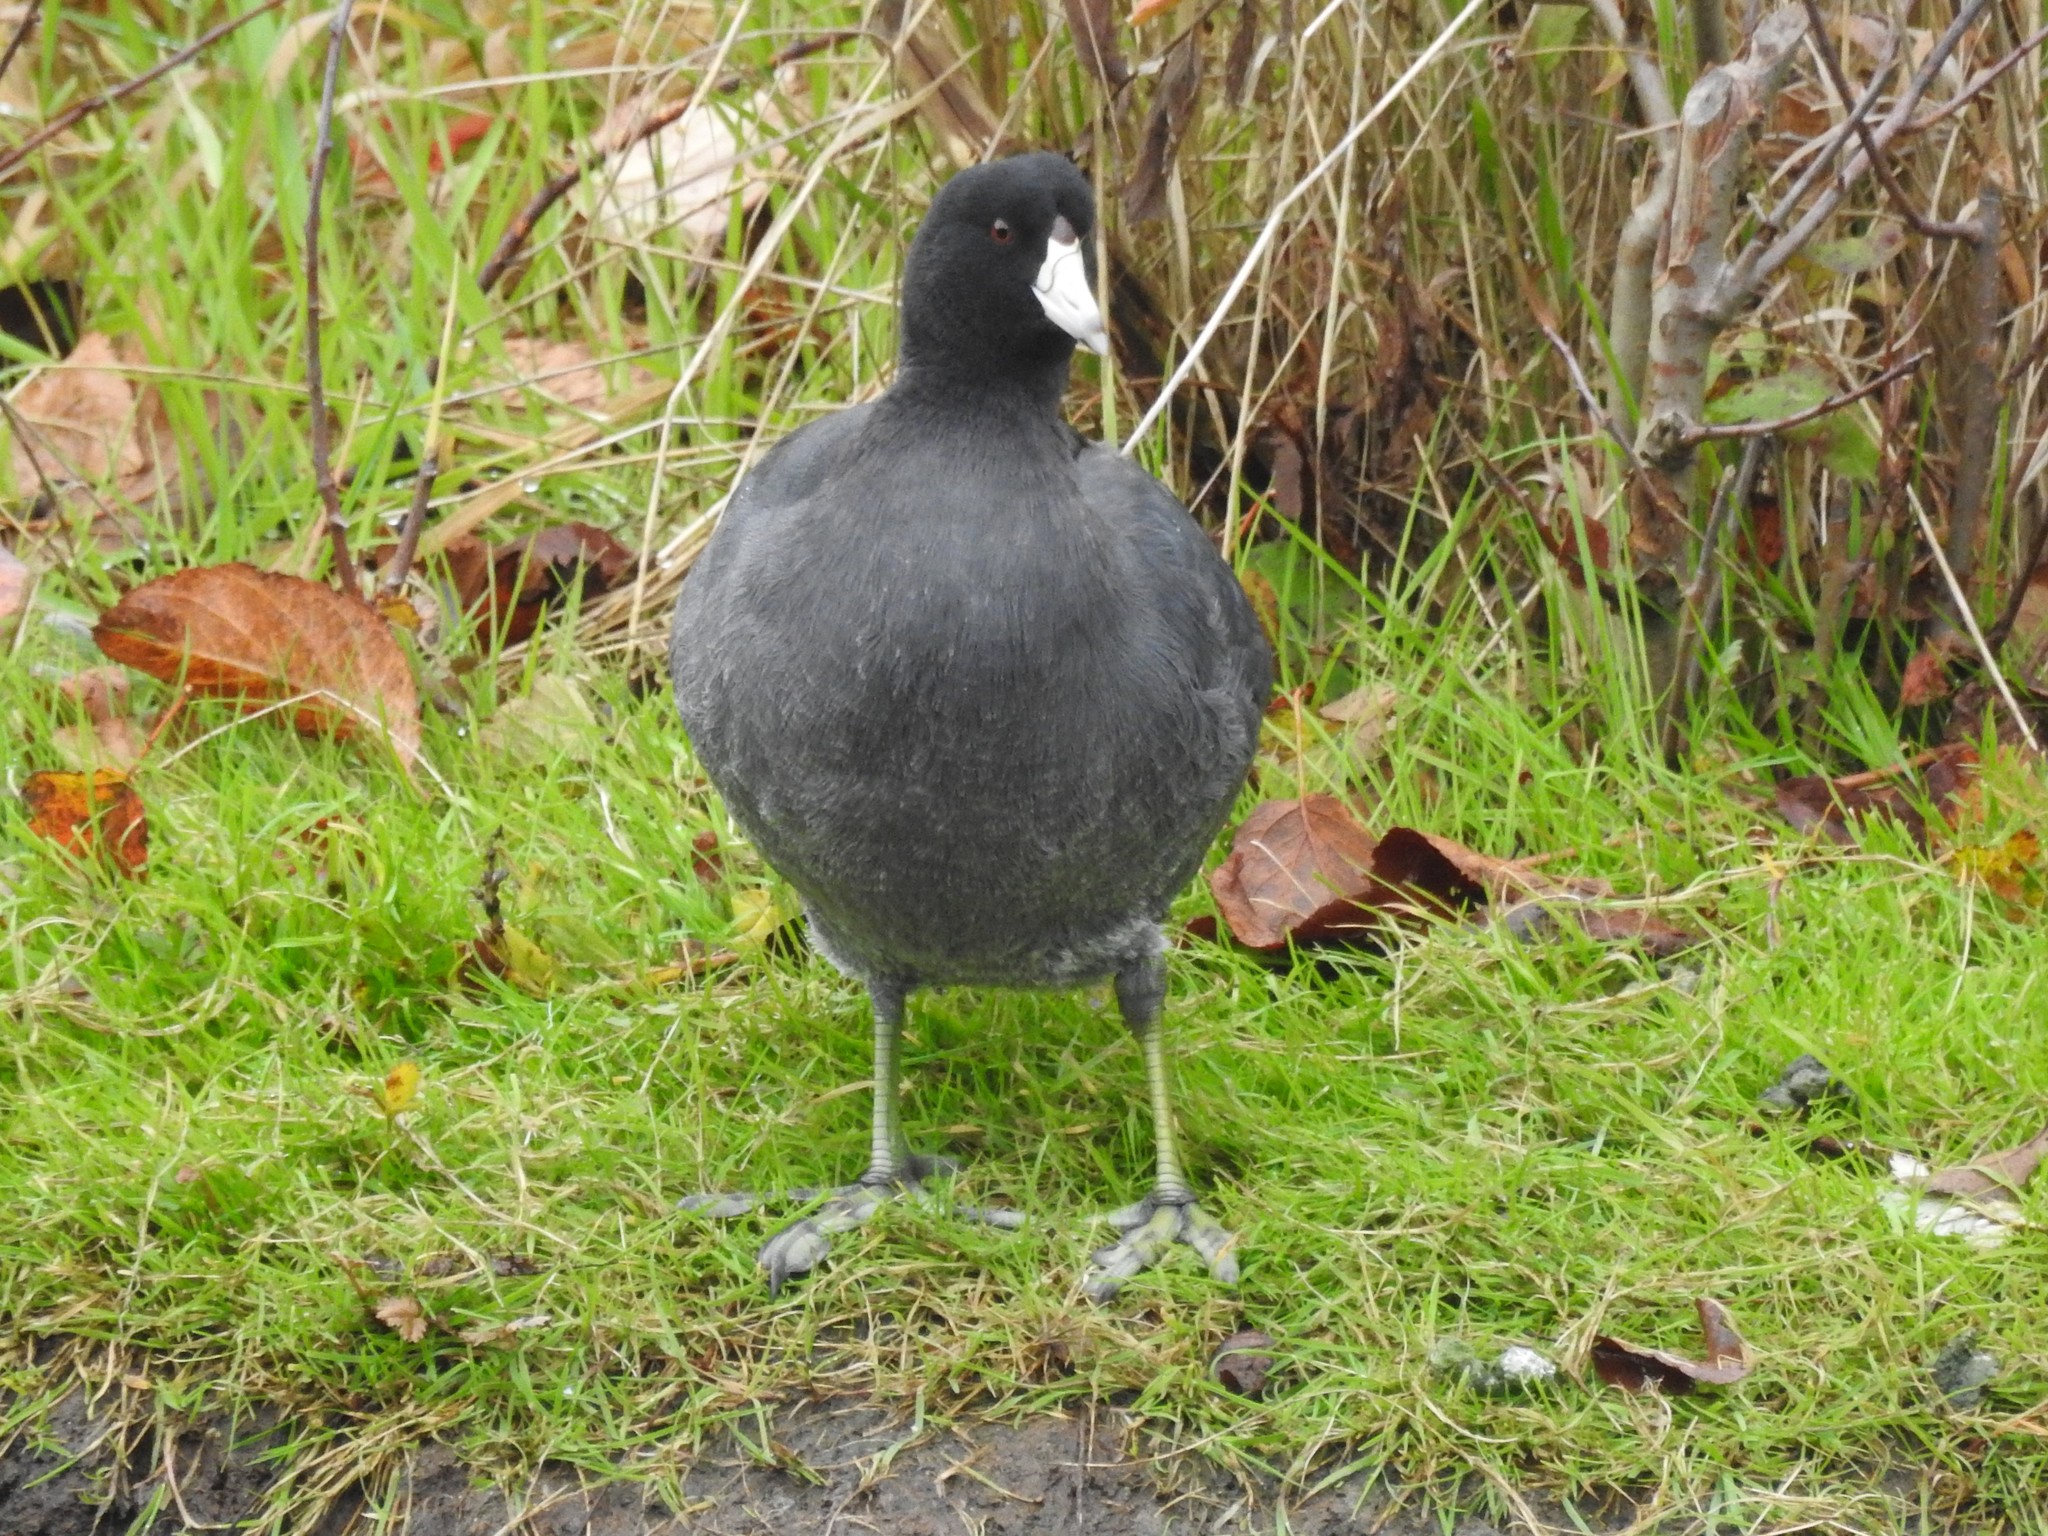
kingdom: Animalia
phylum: Chordata
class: Aves
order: Gruiformes
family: Rallidae
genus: Fulica
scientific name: Fulica americana
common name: American coot
